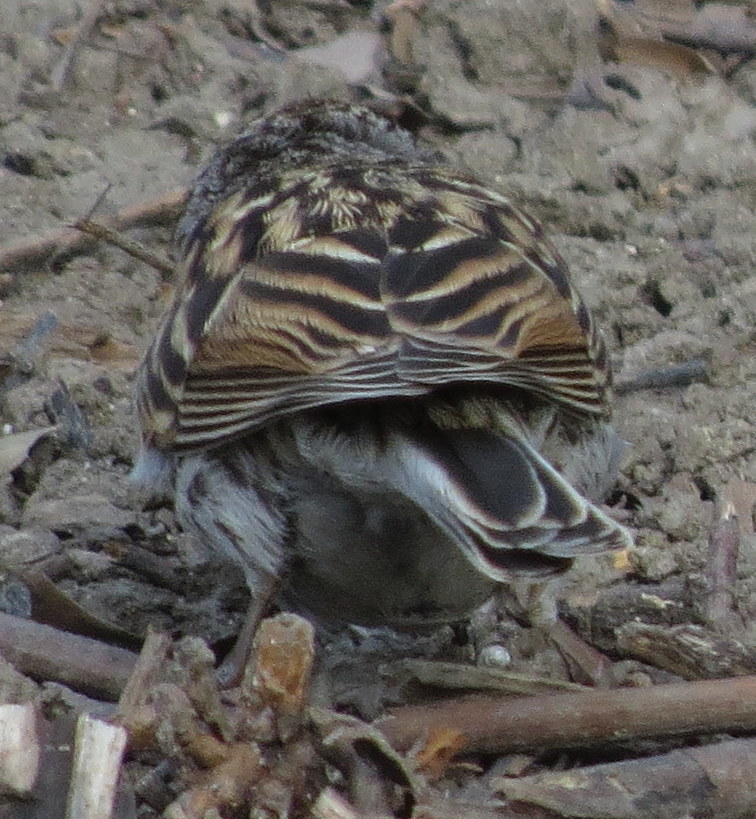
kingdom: Animalia
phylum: Chordata
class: Aves
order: Passeriformes
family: Passerellidae
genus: Spizella
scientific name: Spizella passerina
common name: Chipping sparrow
